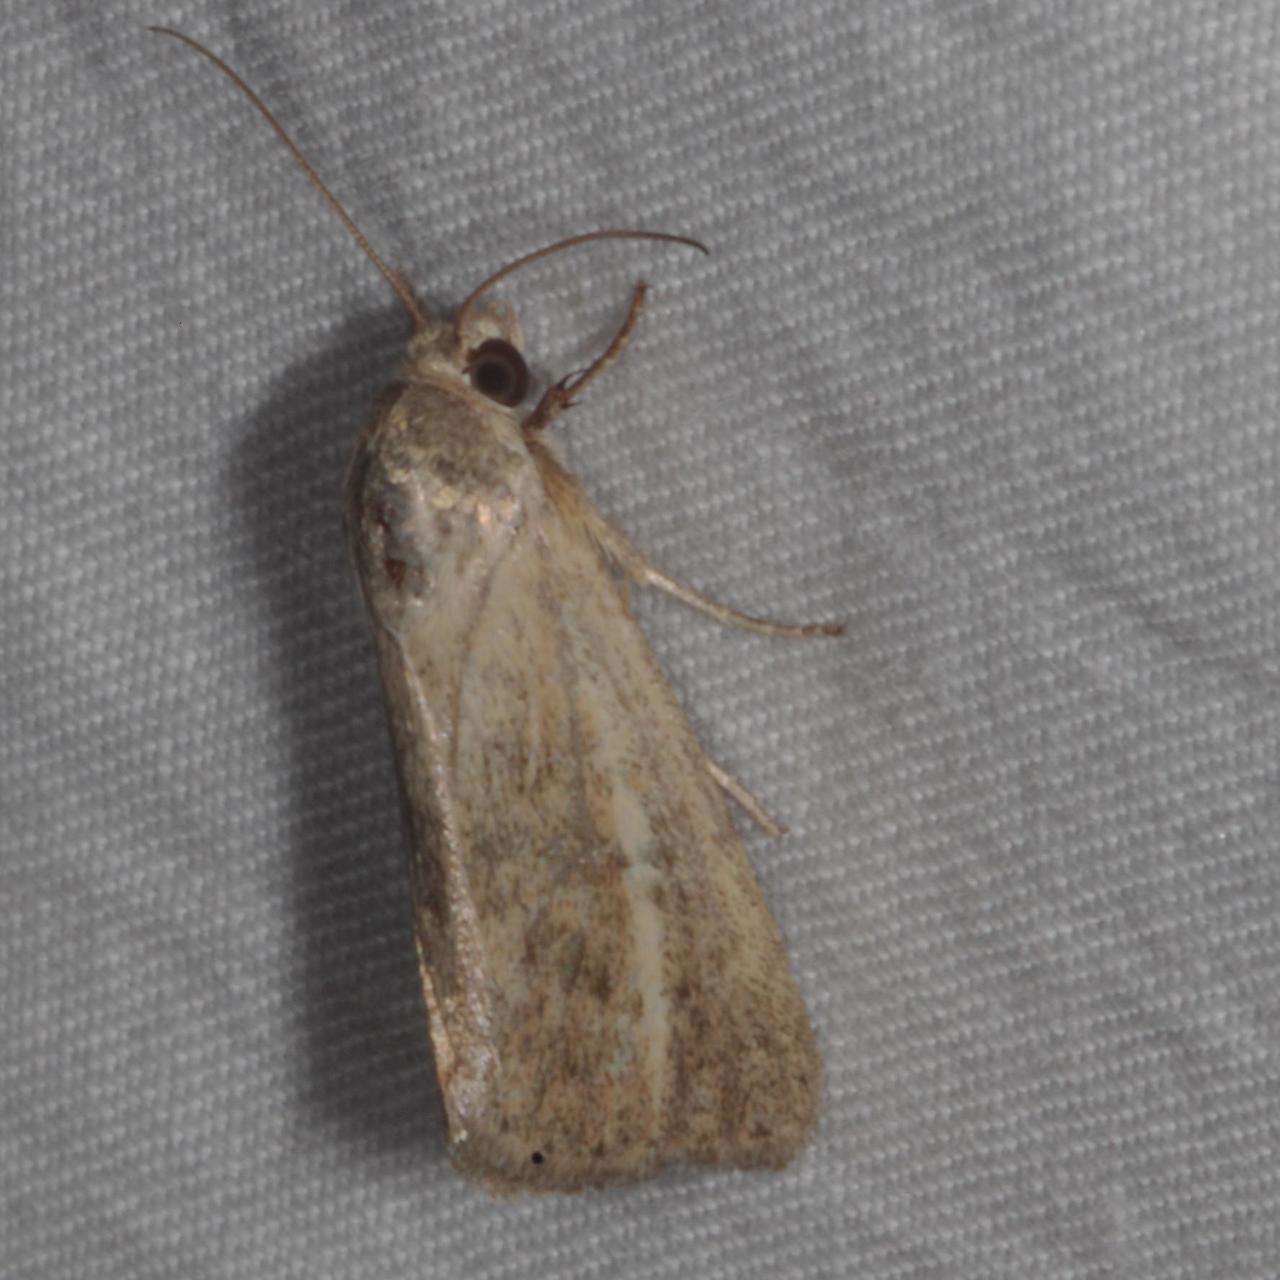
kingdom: Animalia
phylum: Arthropoda
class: Insecta
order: Lepidoptera
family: Noctuidae
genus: Heliocheilus
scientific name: Heliocheilus aberrans
